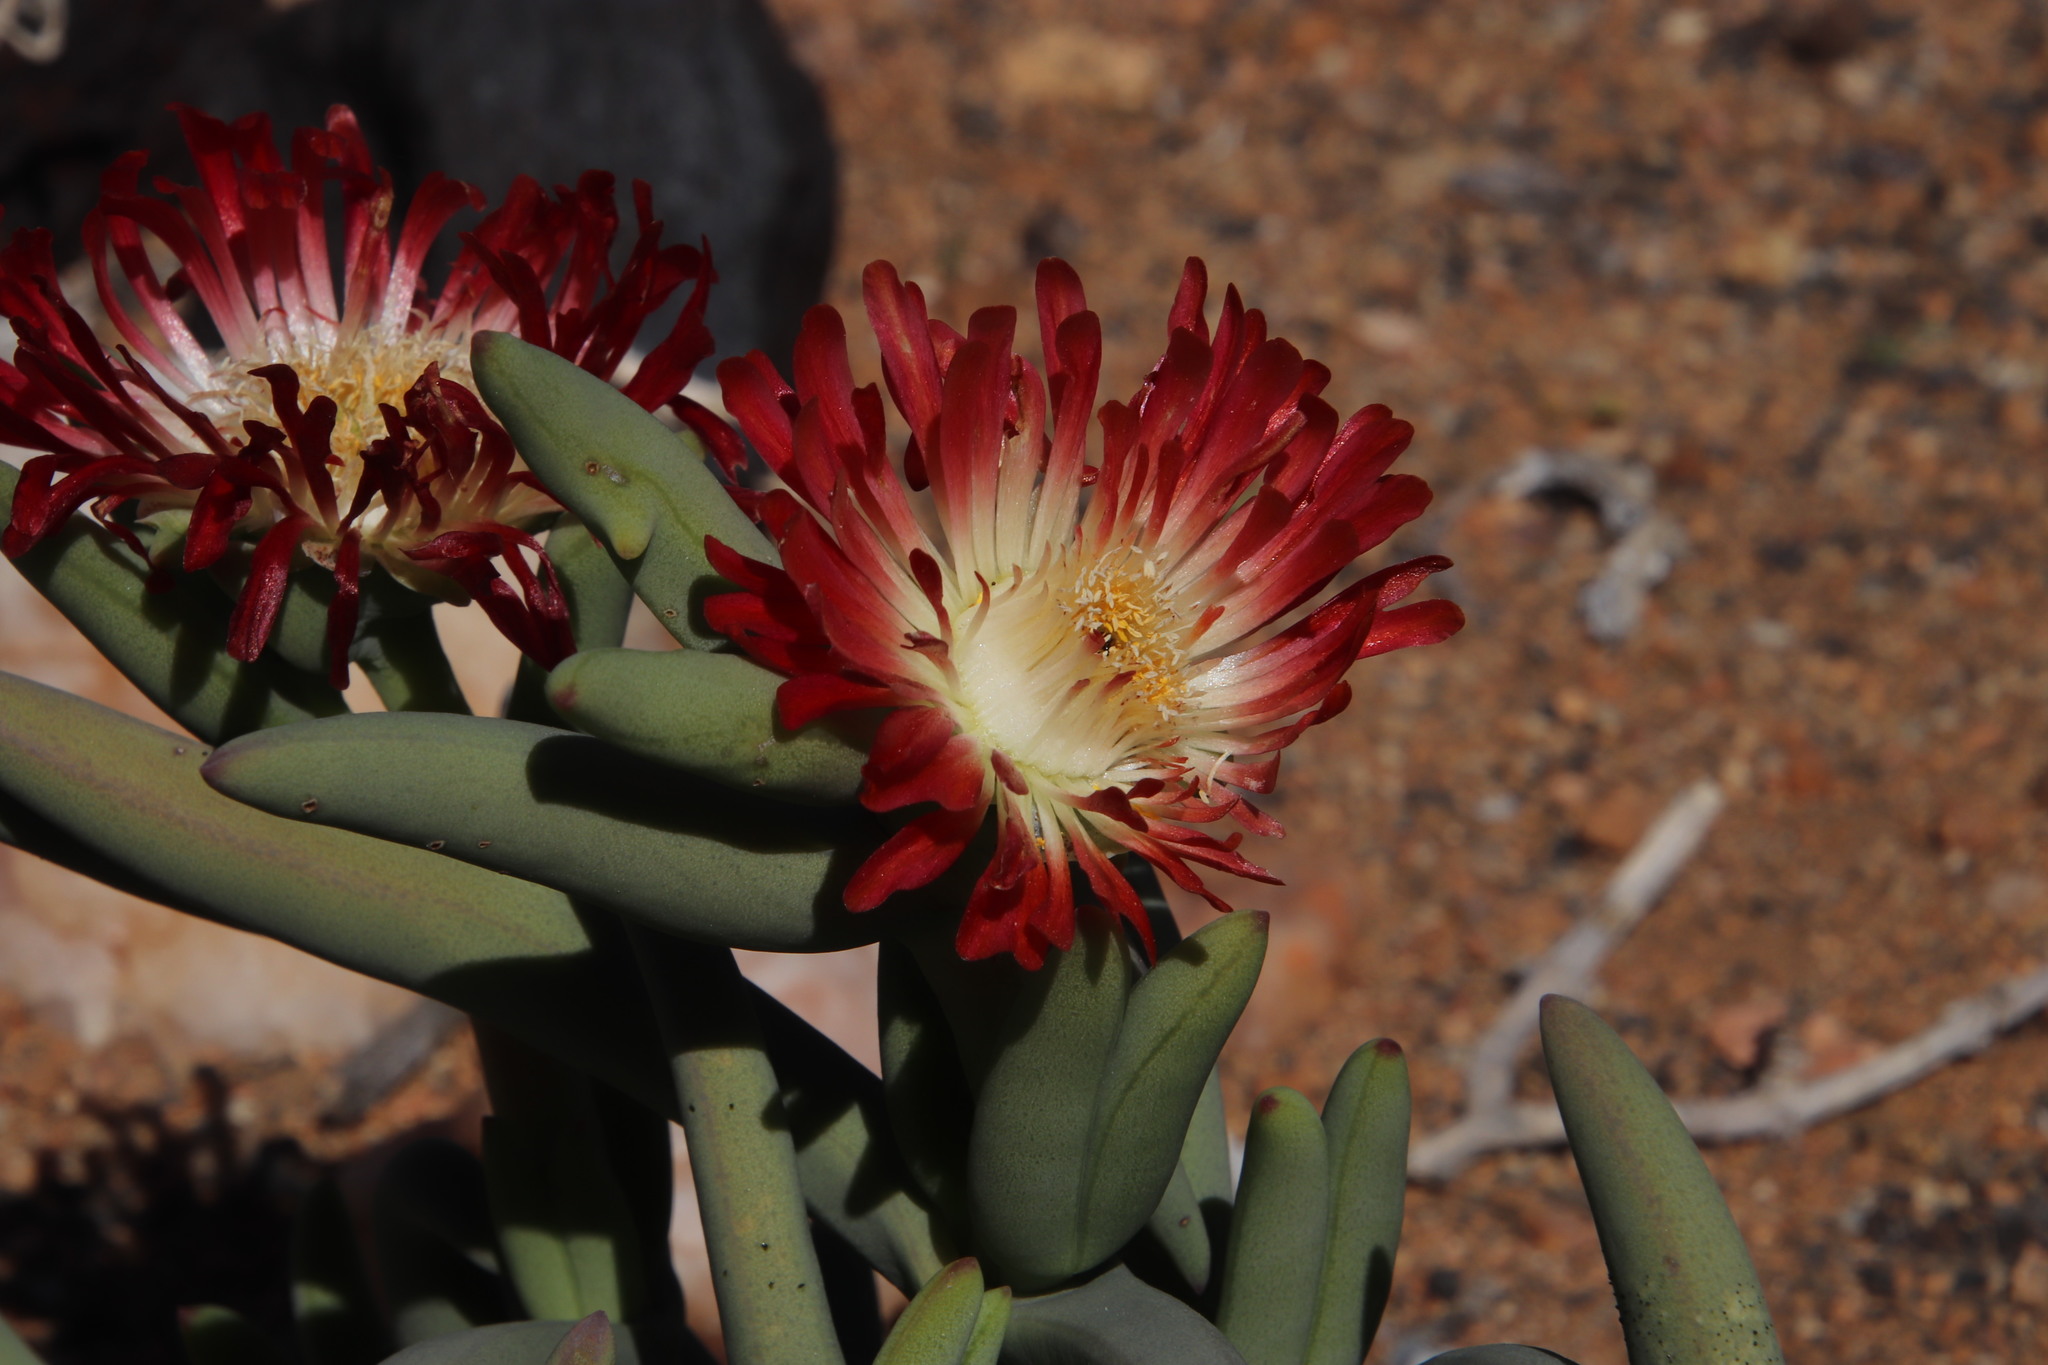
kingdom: Plantae
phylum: Tracheophyta
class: Magnoliopsida
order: Caryophyllales
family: Aizoaceae
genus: Astridia
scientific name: Astridia longifolia
